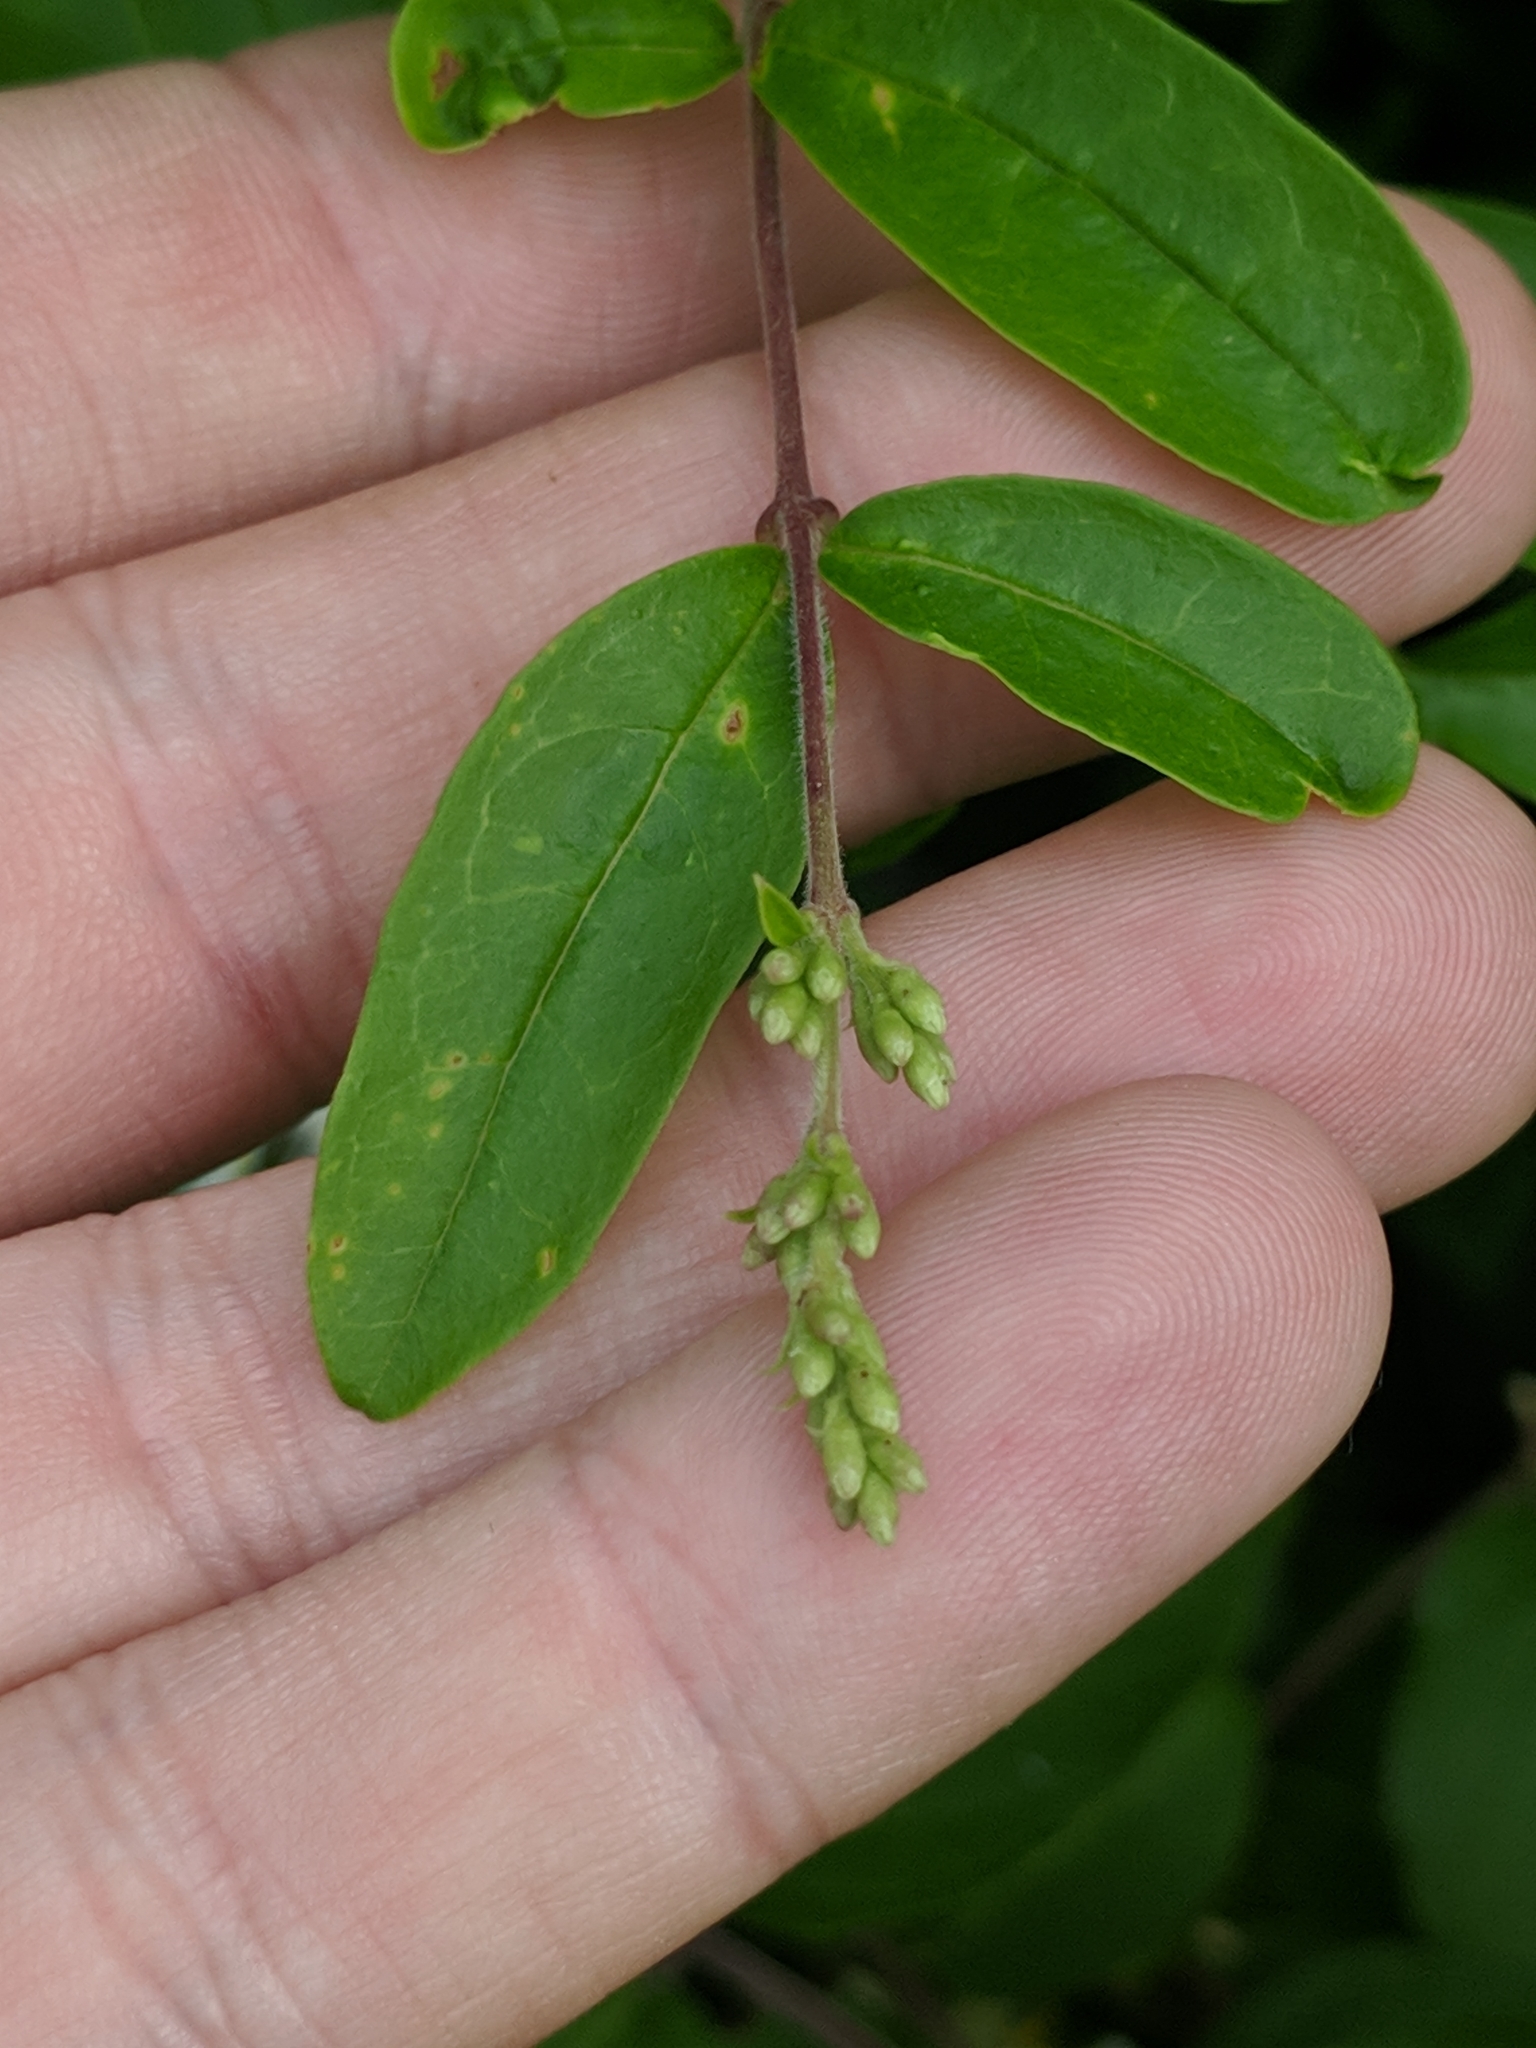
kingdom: Plantae
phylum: Tracheophyta
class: Magnoliopsida
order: Lamiales
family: Oleaceae
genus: Ligustrum
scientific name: Ligustrum obtusifolium
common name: Border privet
